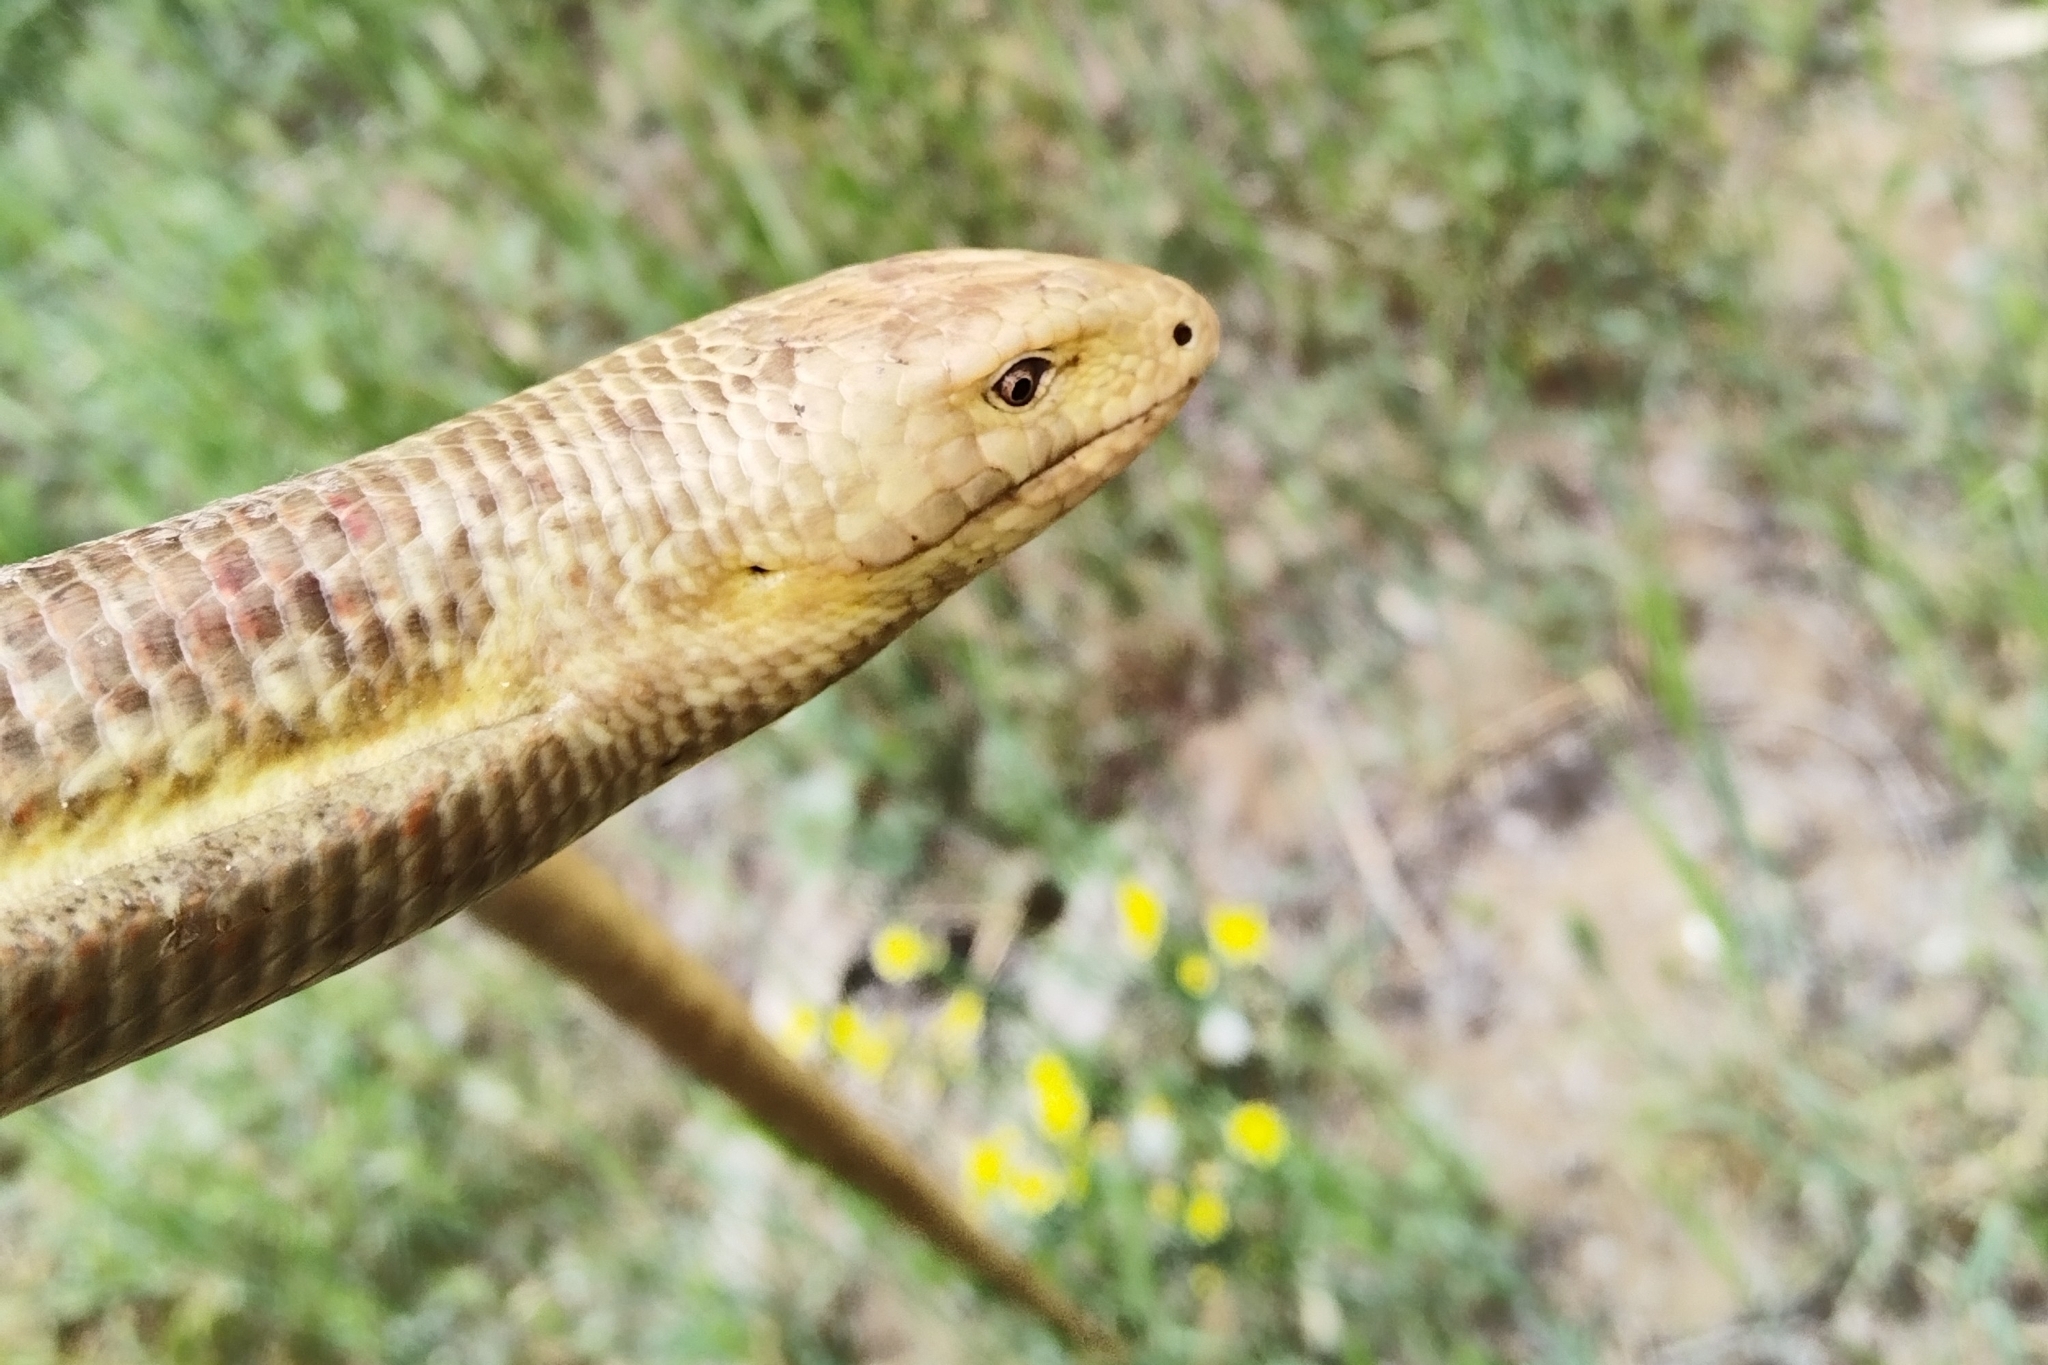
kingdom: Animalia
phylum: Chordata
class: Squamata
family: Anguidae
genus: Pseudopus
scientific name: Pseudopus apodus
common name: European glass lizard
